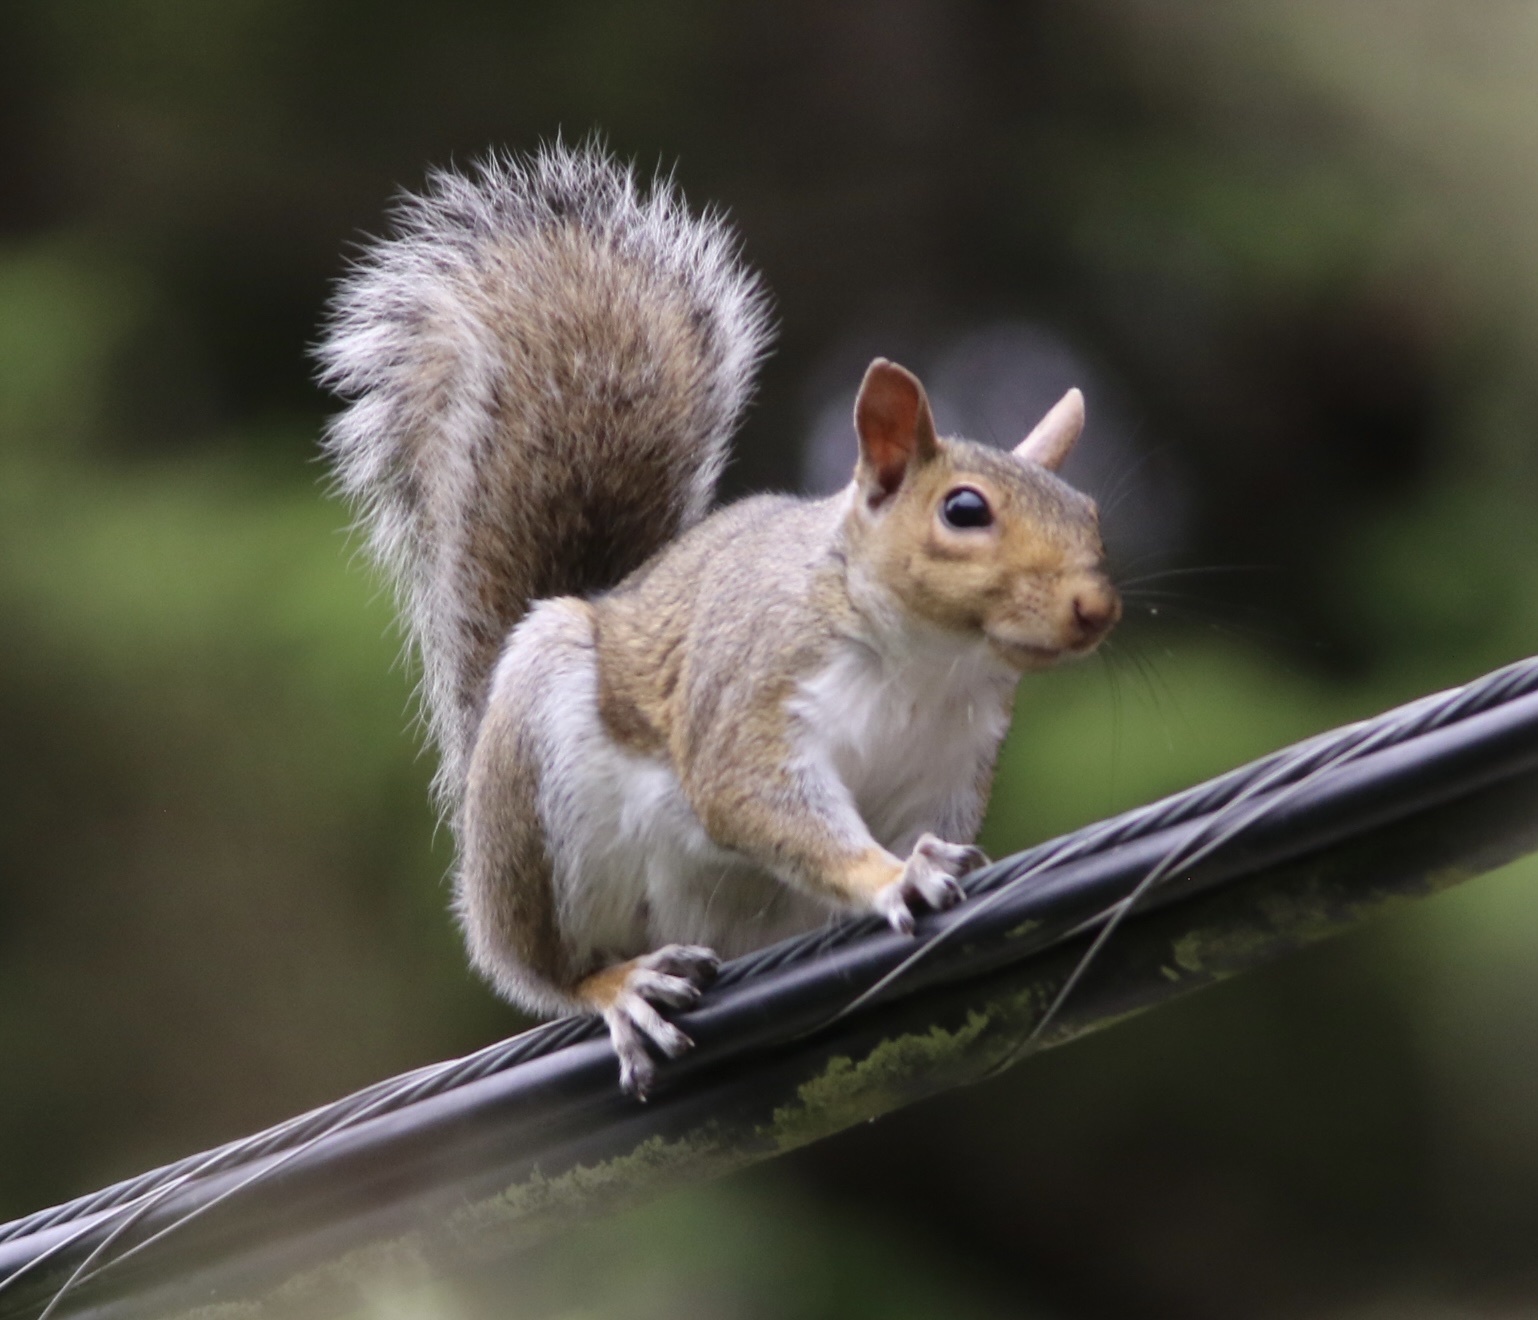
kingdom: Animalia
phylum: Chordata
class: Mammalia
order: Rodentia
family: Sciuridae
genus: Sciurus
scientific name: Sciurus carolinensis
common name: Eastern gray squirrel
